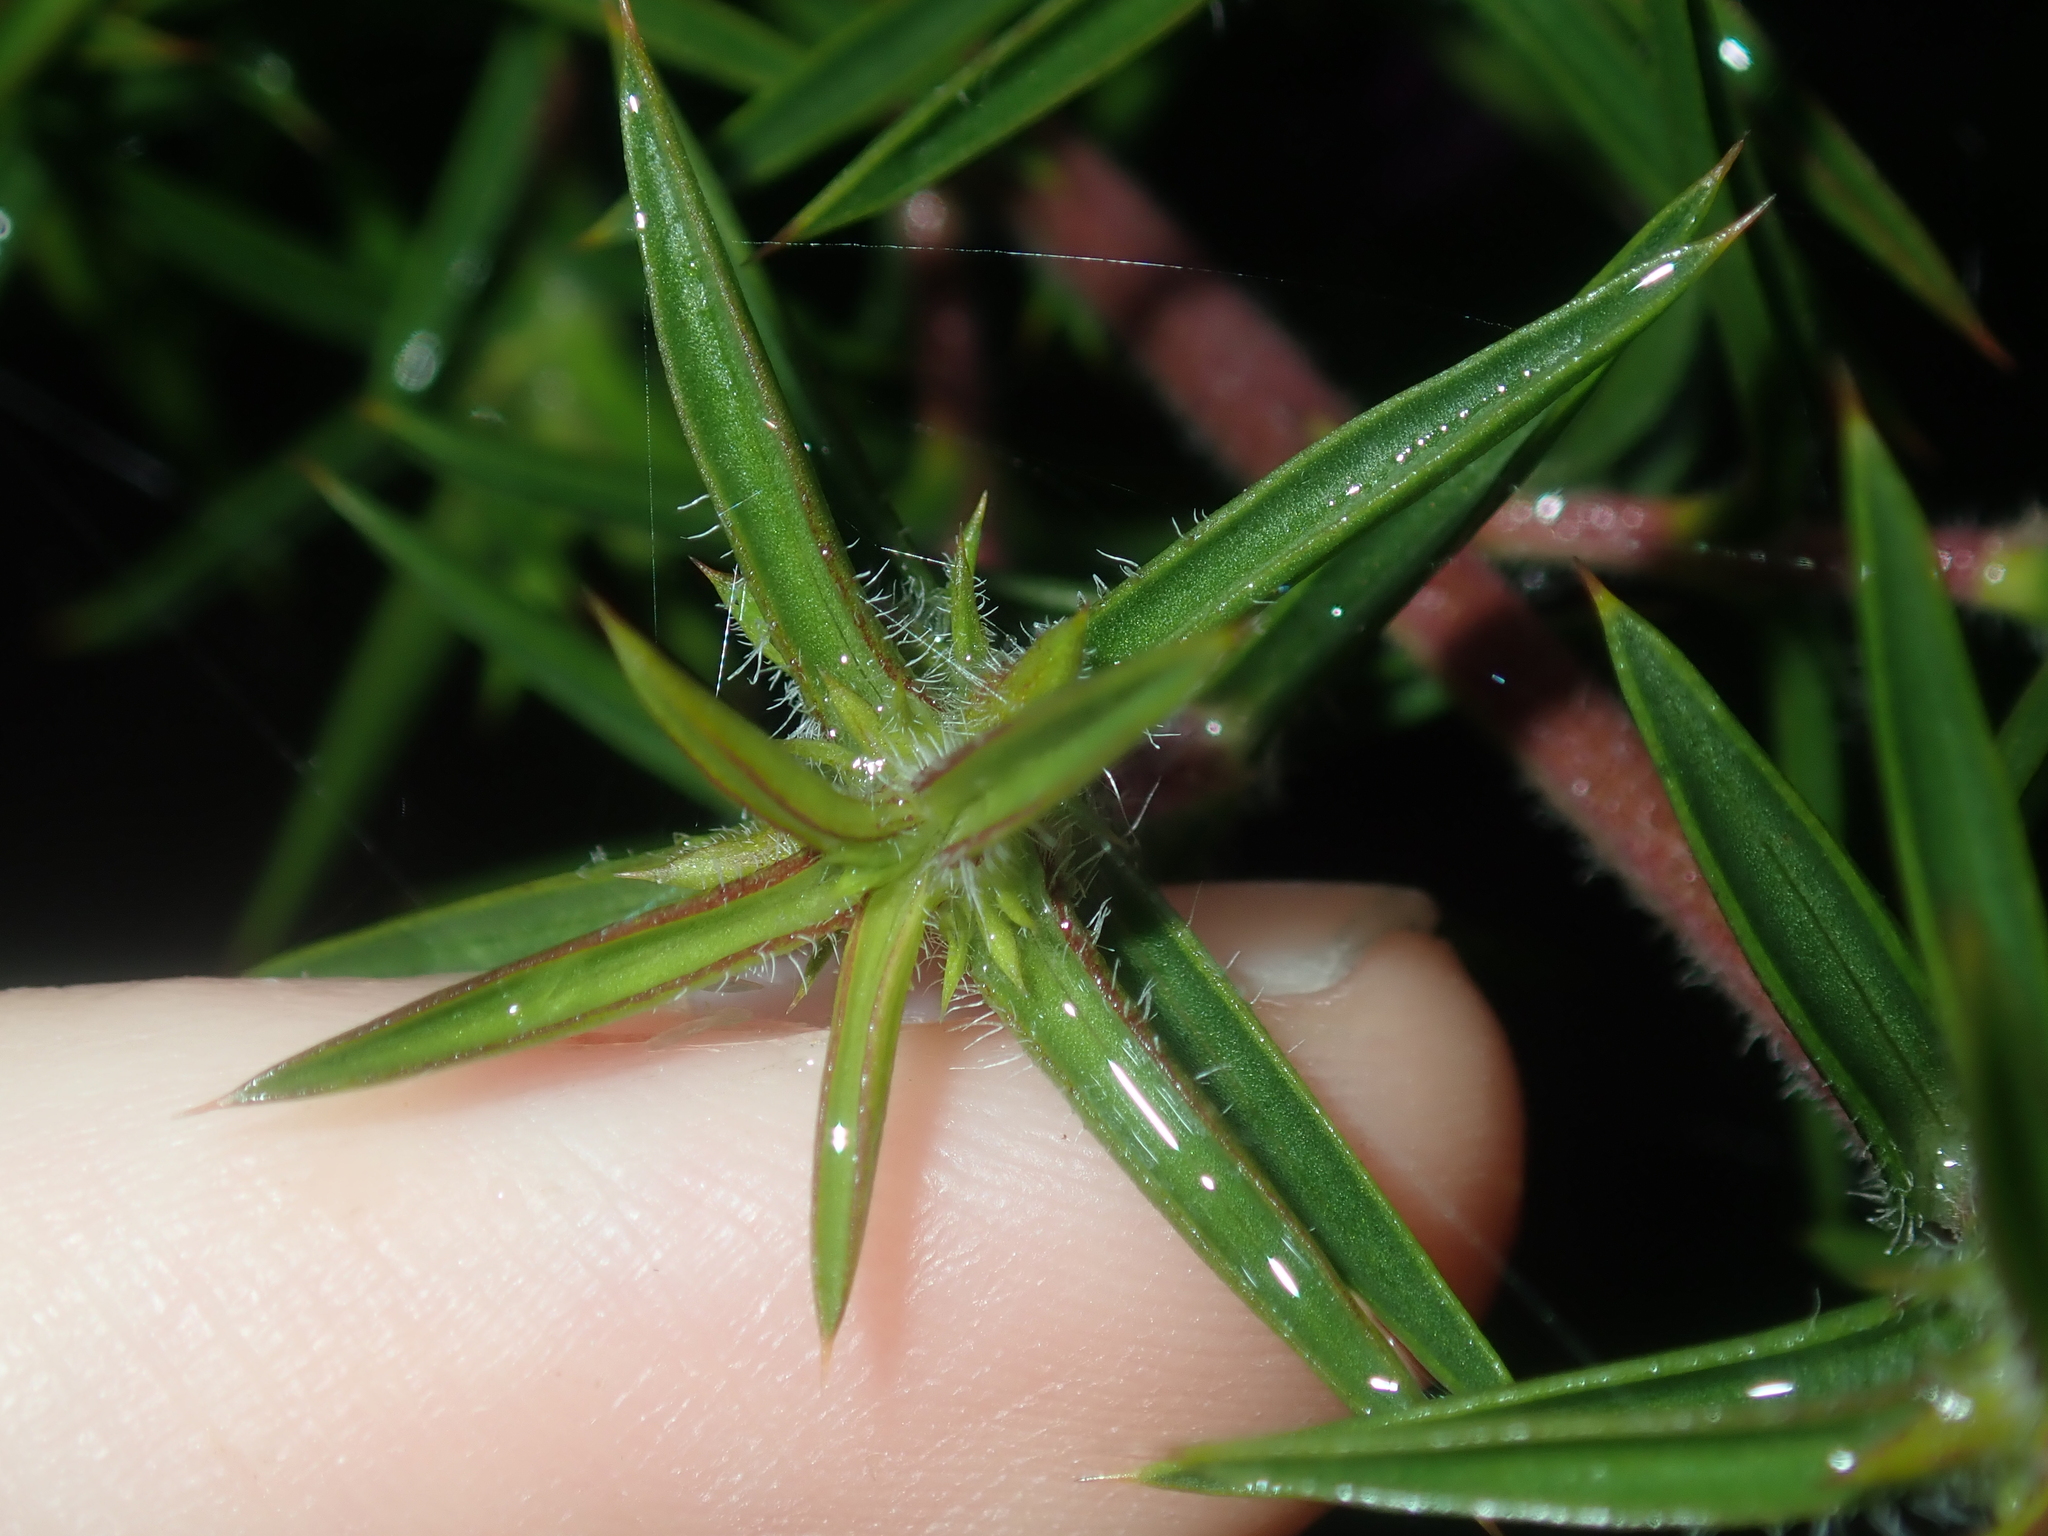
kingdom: Plantae
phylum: Tracheophyta
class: Magnoliopsida
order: Lamiales
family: Lamiaceae
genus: Hemiandra
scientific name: Hemiandra pungens
